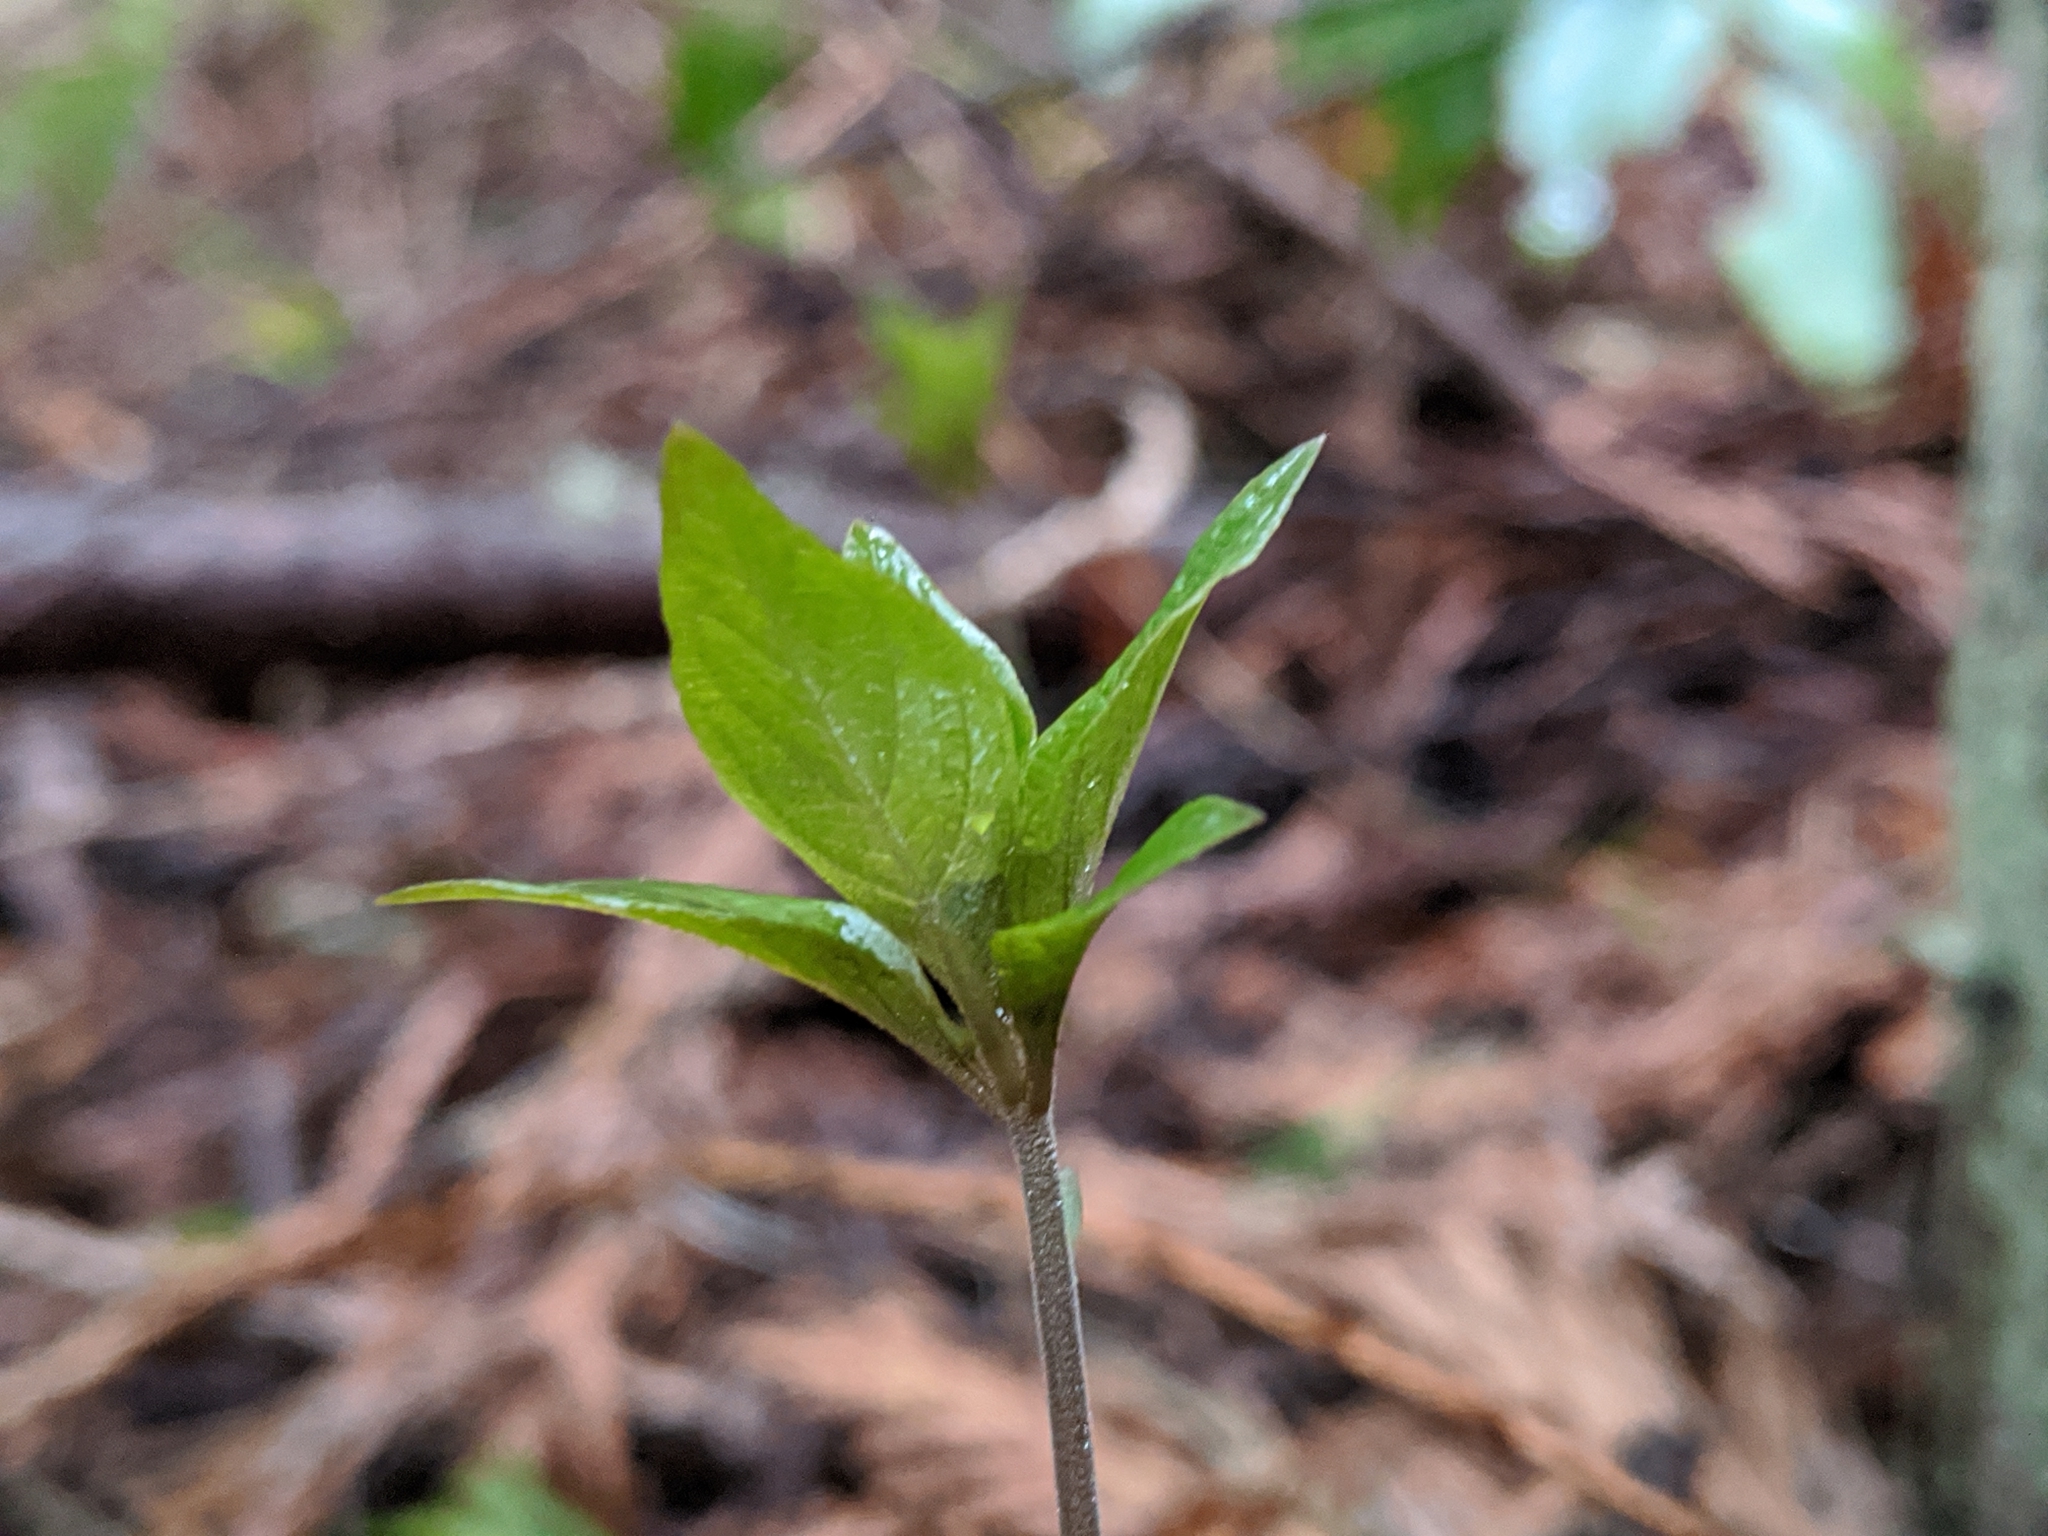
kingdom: Plantae
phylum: Tracheophyta
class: Magnoliopsida
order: Ericales
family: Primulaceae
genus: Lysimachia
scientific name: Lysimachia latifolia
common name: Pacific starflower
